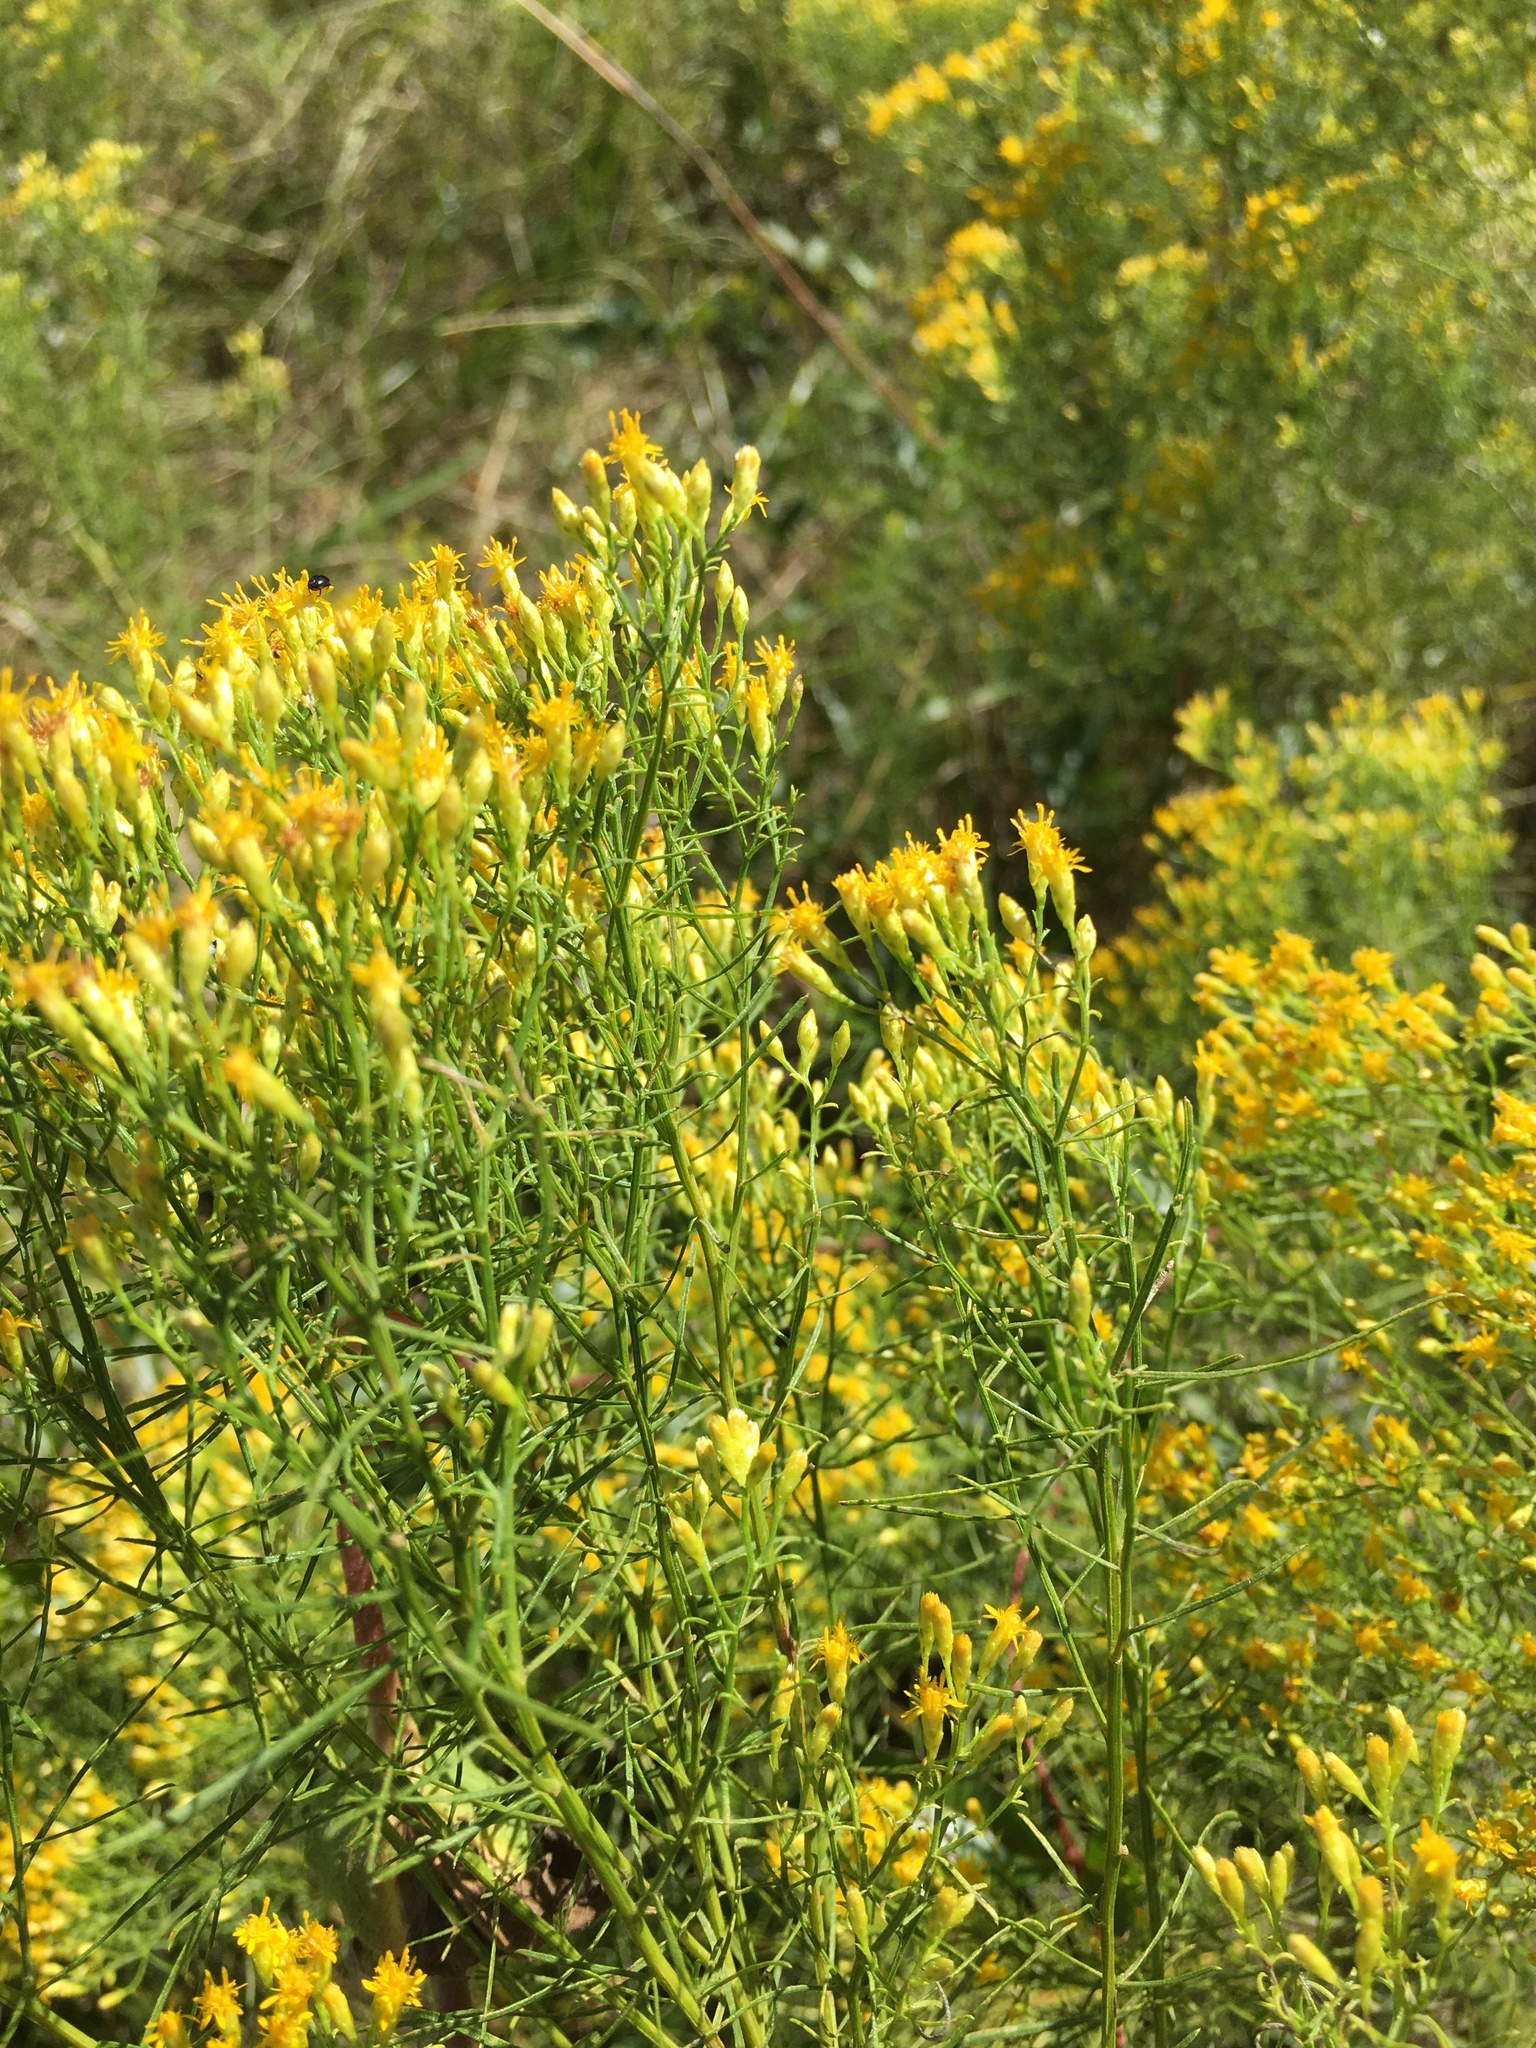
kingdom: Plantae
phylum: Tracheophyta
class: Magnoliopsida
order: Asterales
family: Asteraceae
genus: Euthamia
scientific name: Euthamia caroliniana
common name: Coastal plain goldentop
